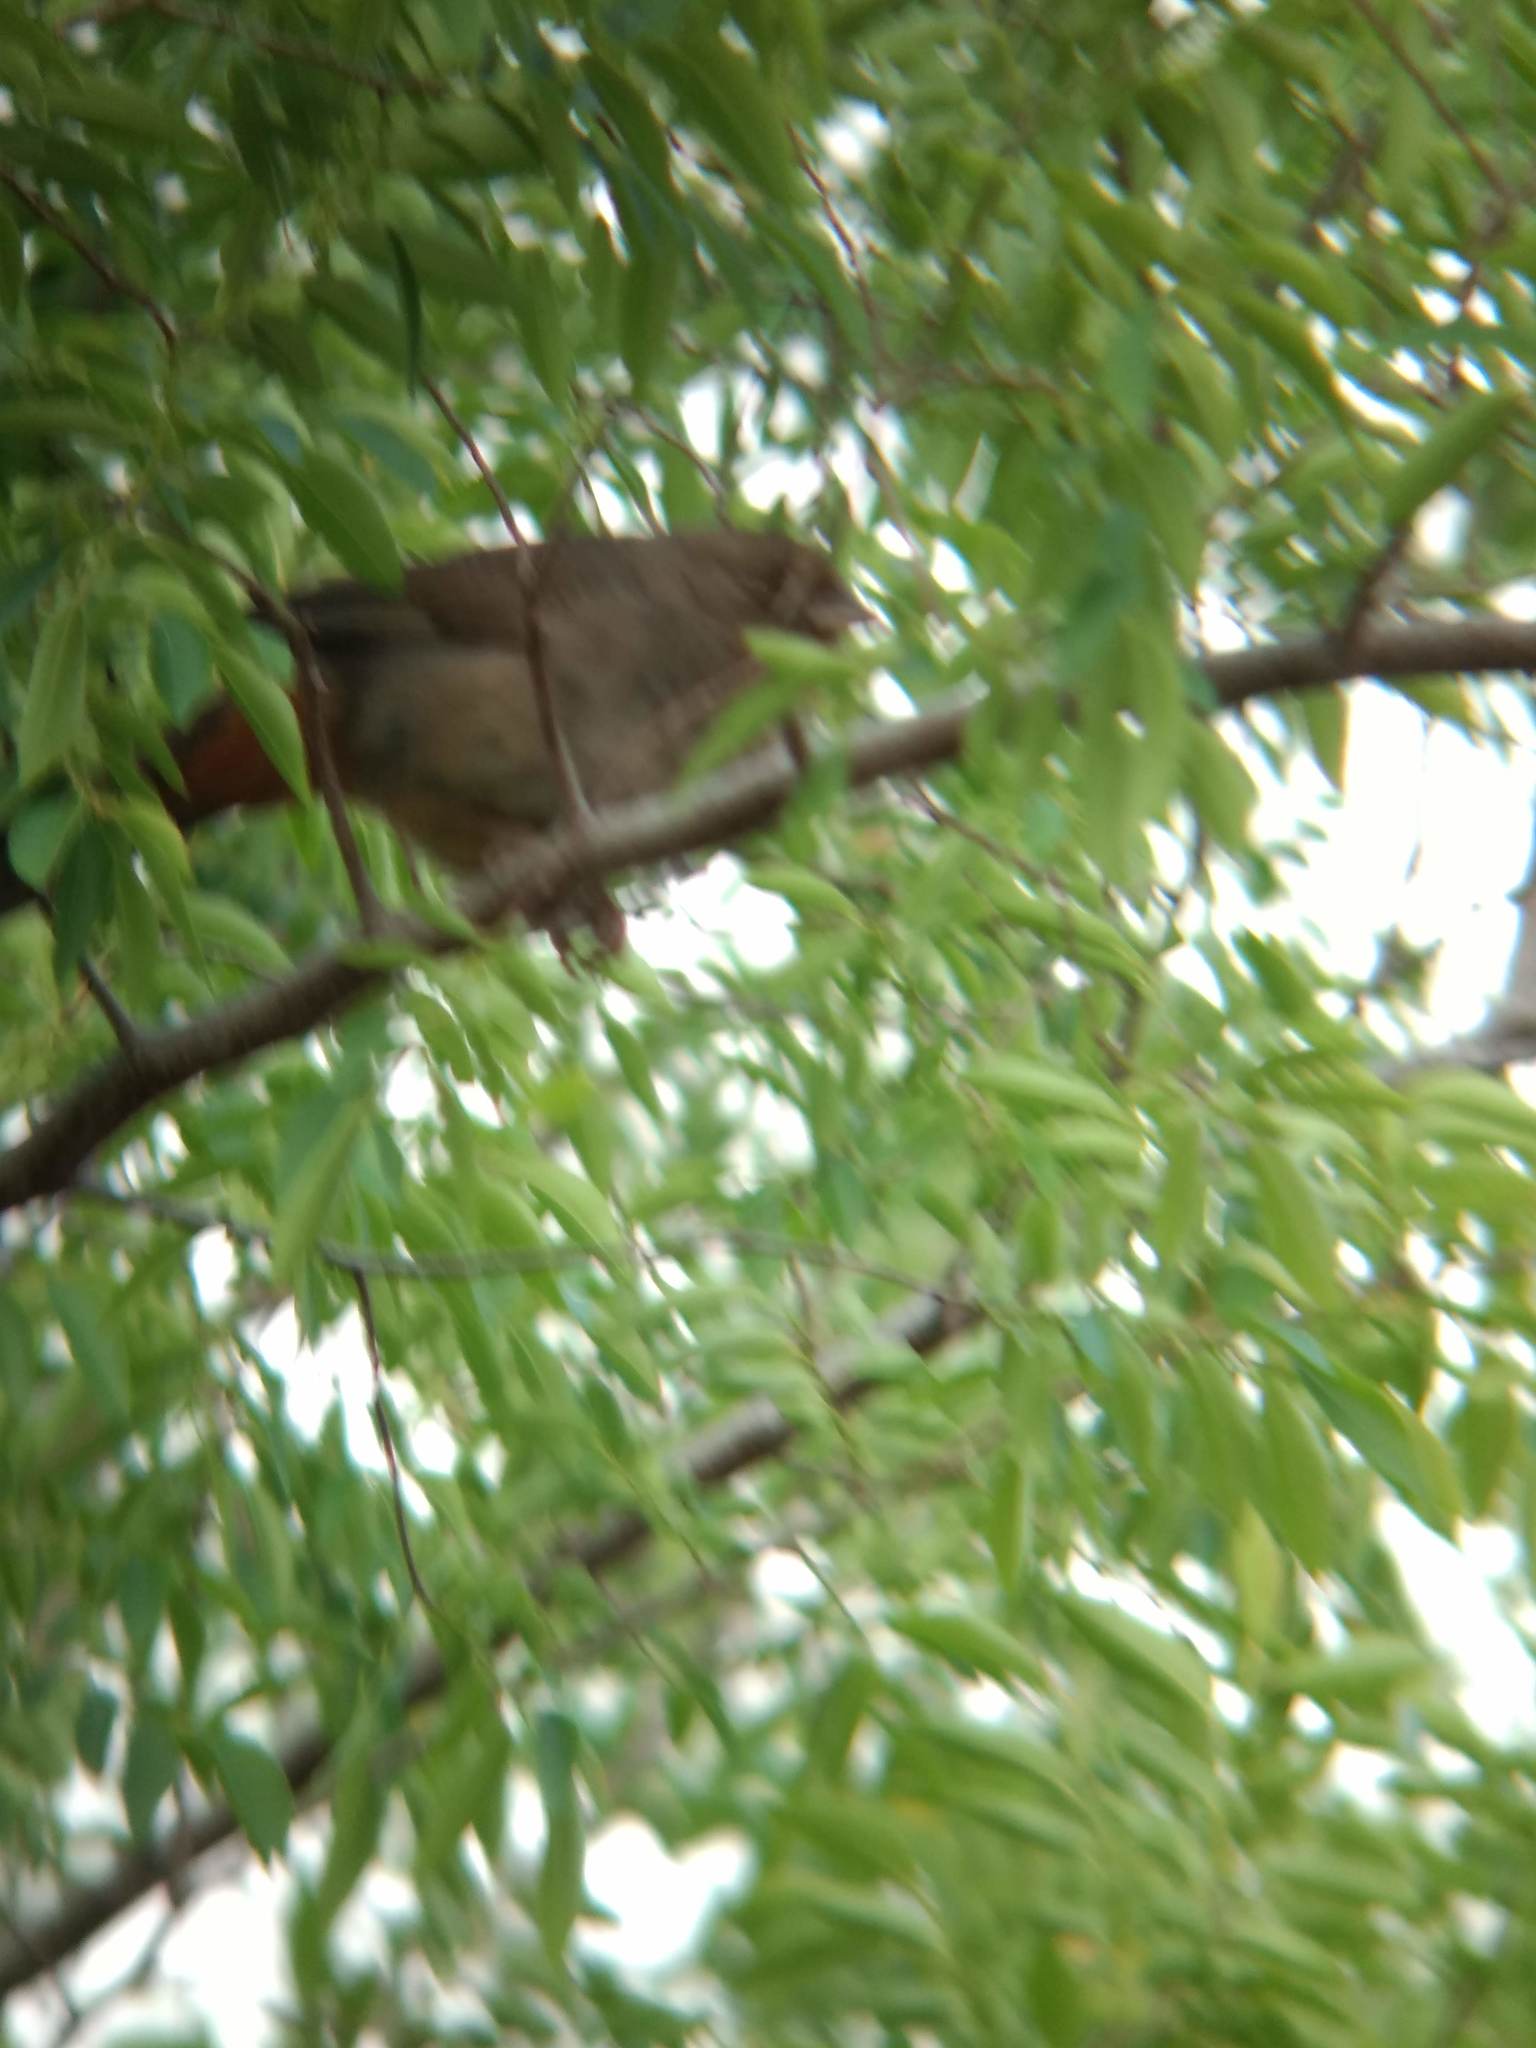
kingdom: Animalia
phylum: Chordata
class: Aves
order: Passeriformes
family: Passerellidae
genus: Melozone
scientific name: Melozone crissalis
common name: California towhee
